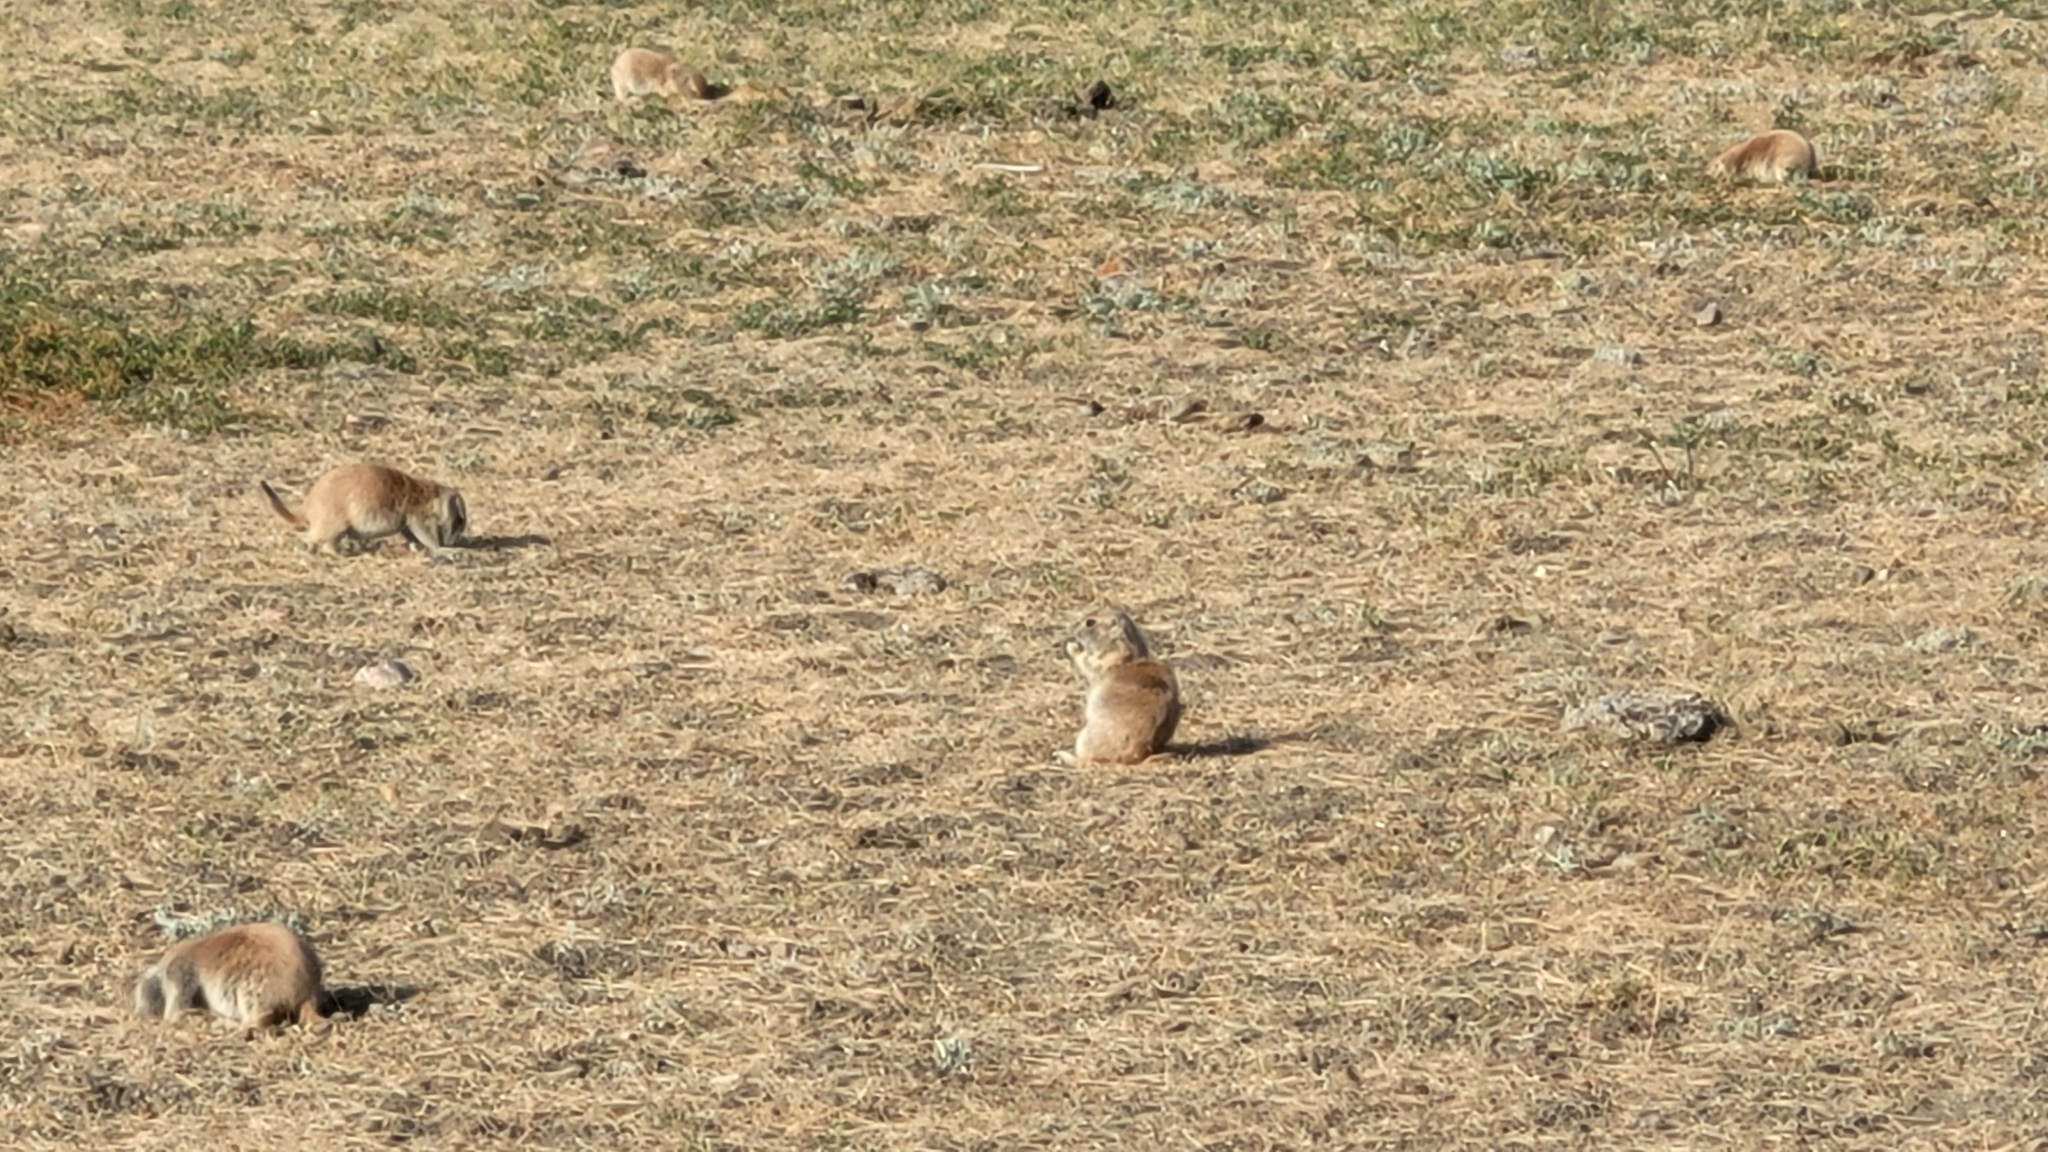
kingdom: Animalia
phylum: Chordata
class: Mammalia
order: Rodentia
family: Sciuridae
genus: Cynomys
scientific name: Cynomys ludovicianus
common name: Black-tailed prairie dog
